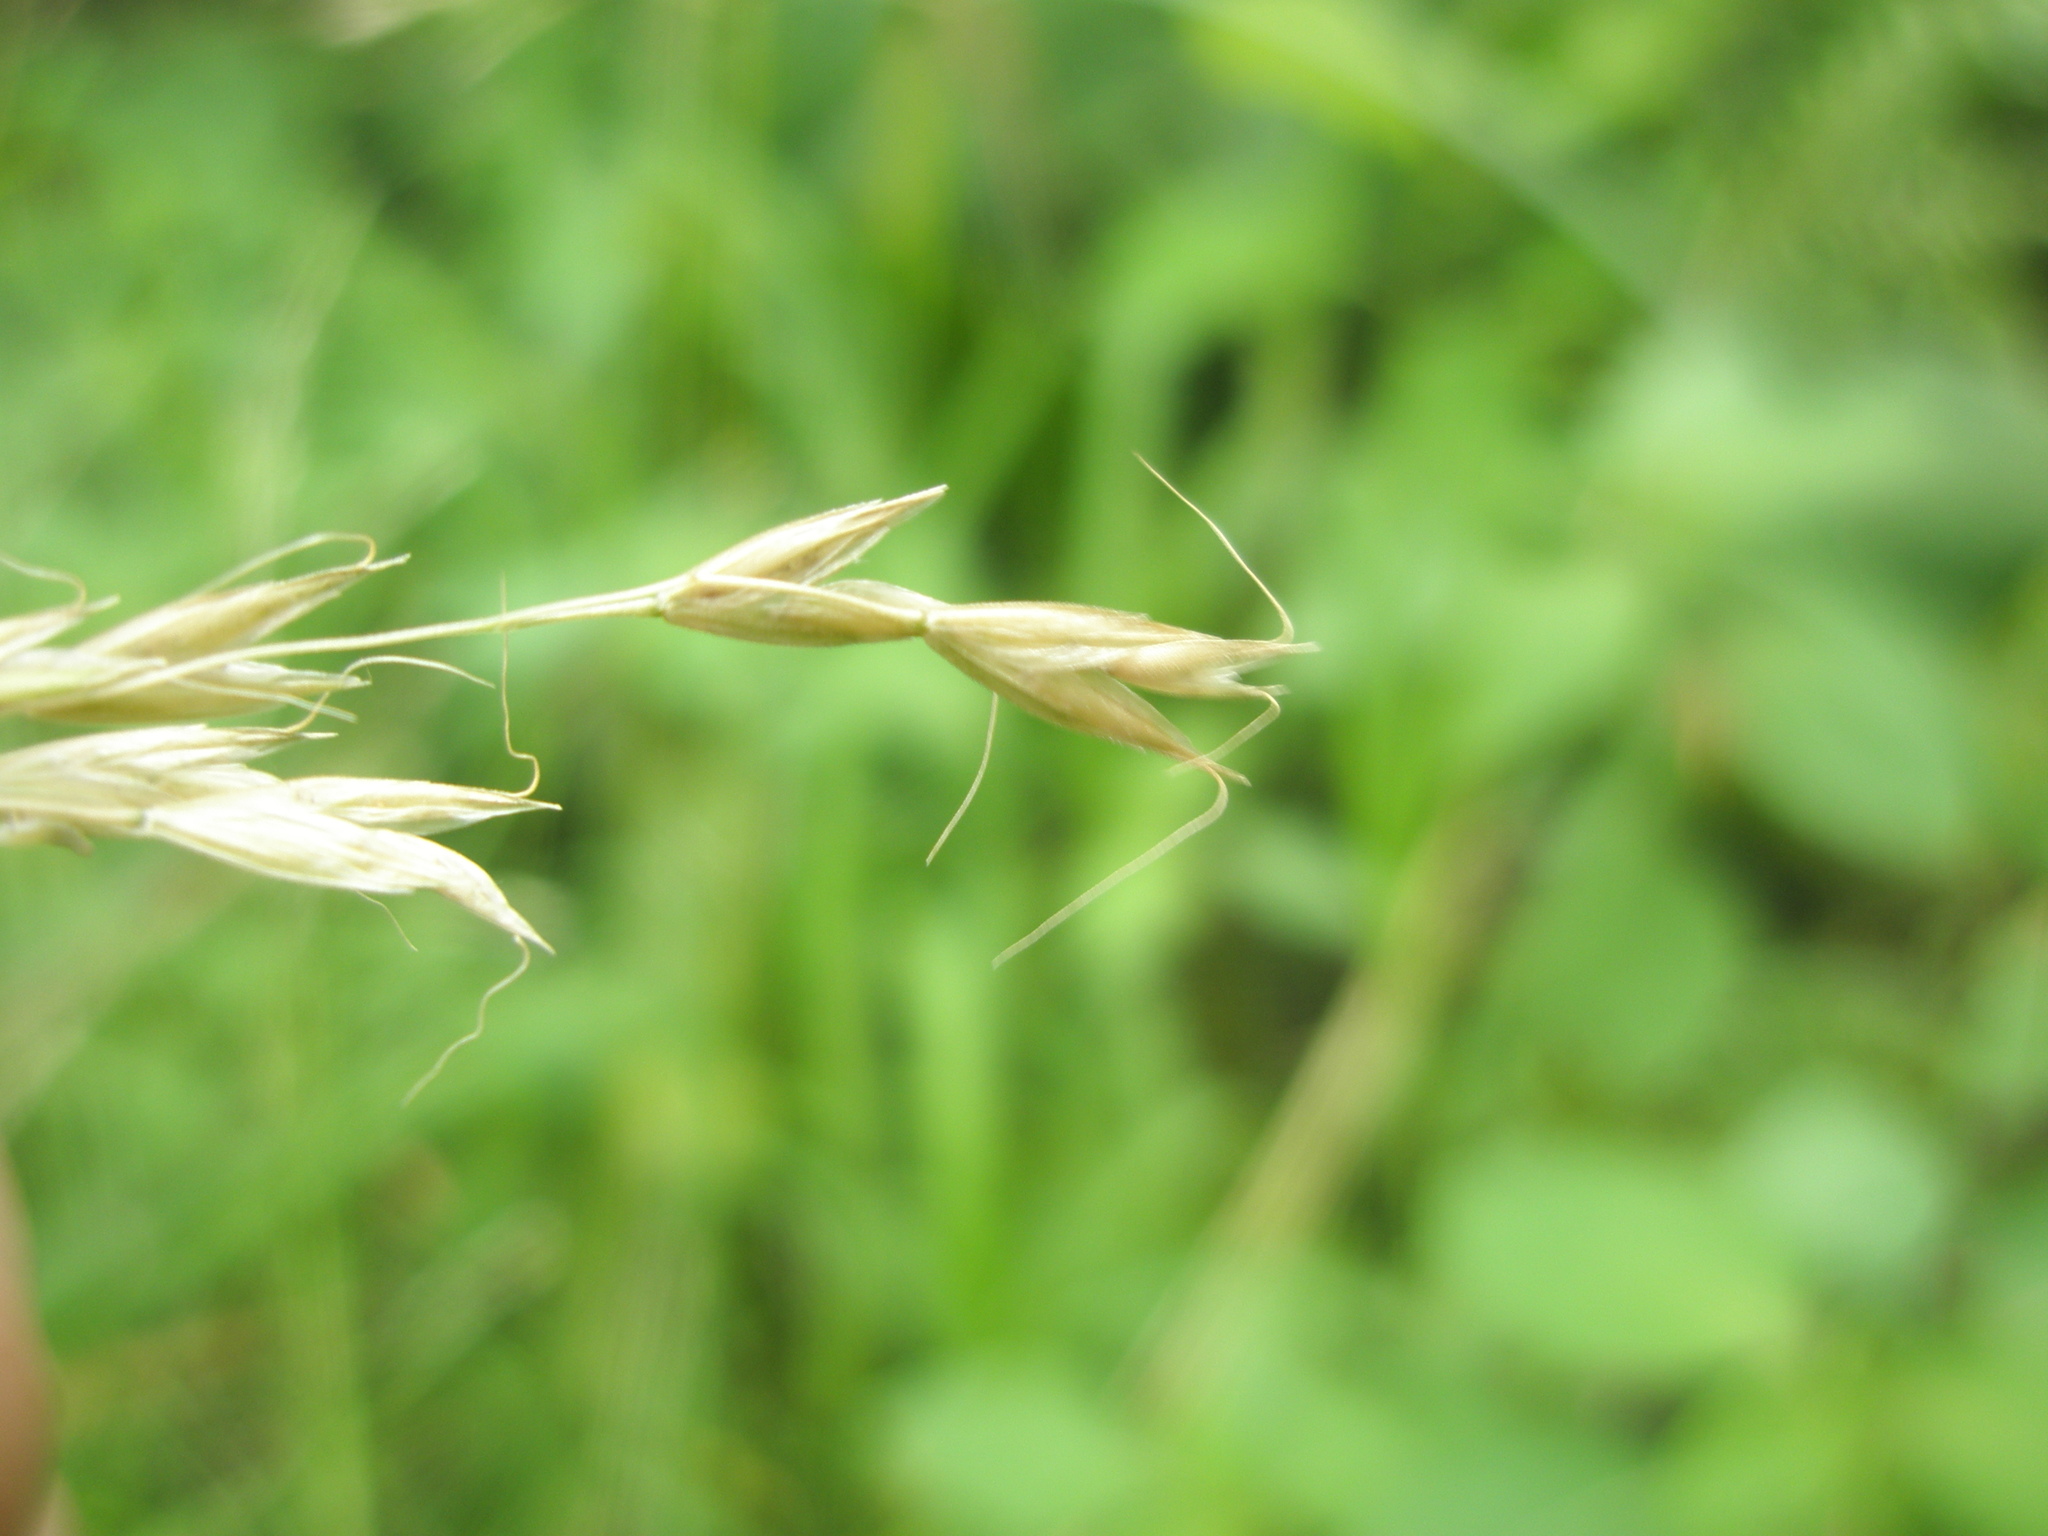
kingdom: Plantae
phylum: Tracheophyta
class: Liliopsida
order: Poales
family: Poaceae
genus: Sphenopholis
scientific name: Sphenopholis pensylvanica
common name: Swamp oats
